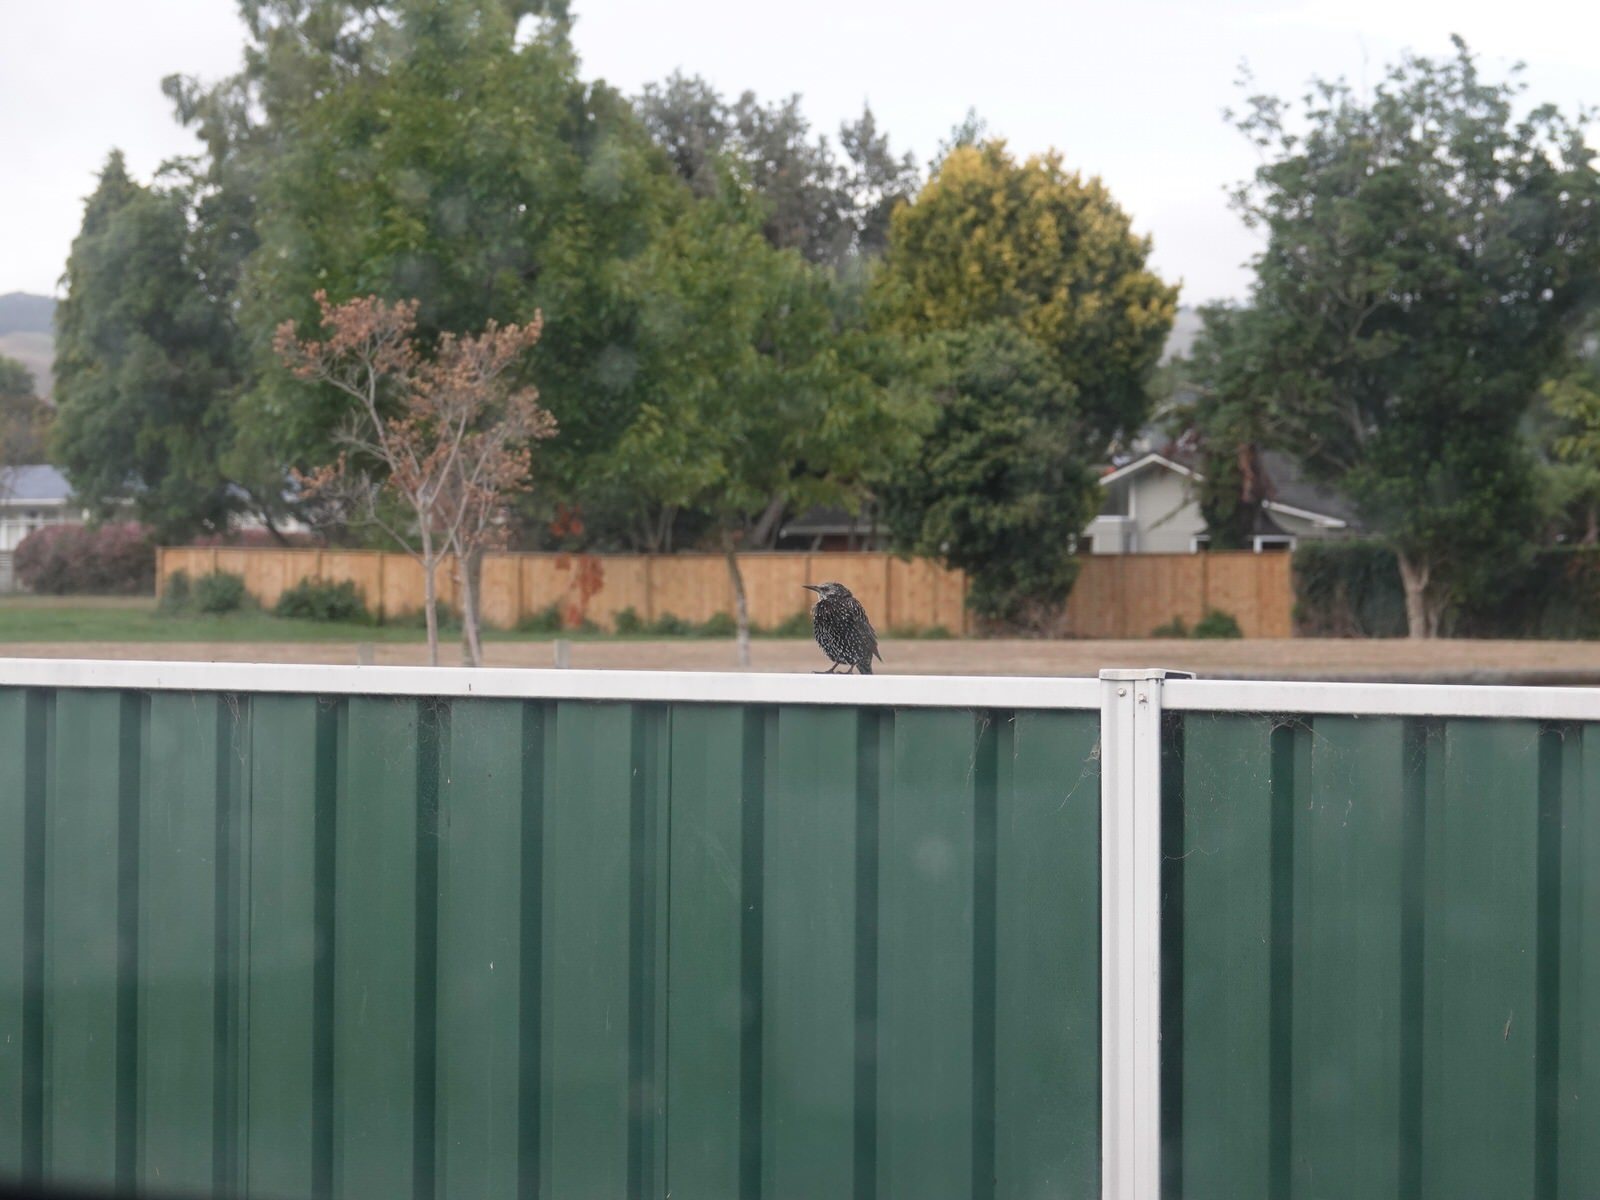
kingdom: Animalia
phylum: Chordata
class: Aves
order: Passeriformes
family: Sturnidae
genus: Sturnus
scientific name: Sturnus vulgaris
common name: Common starling
